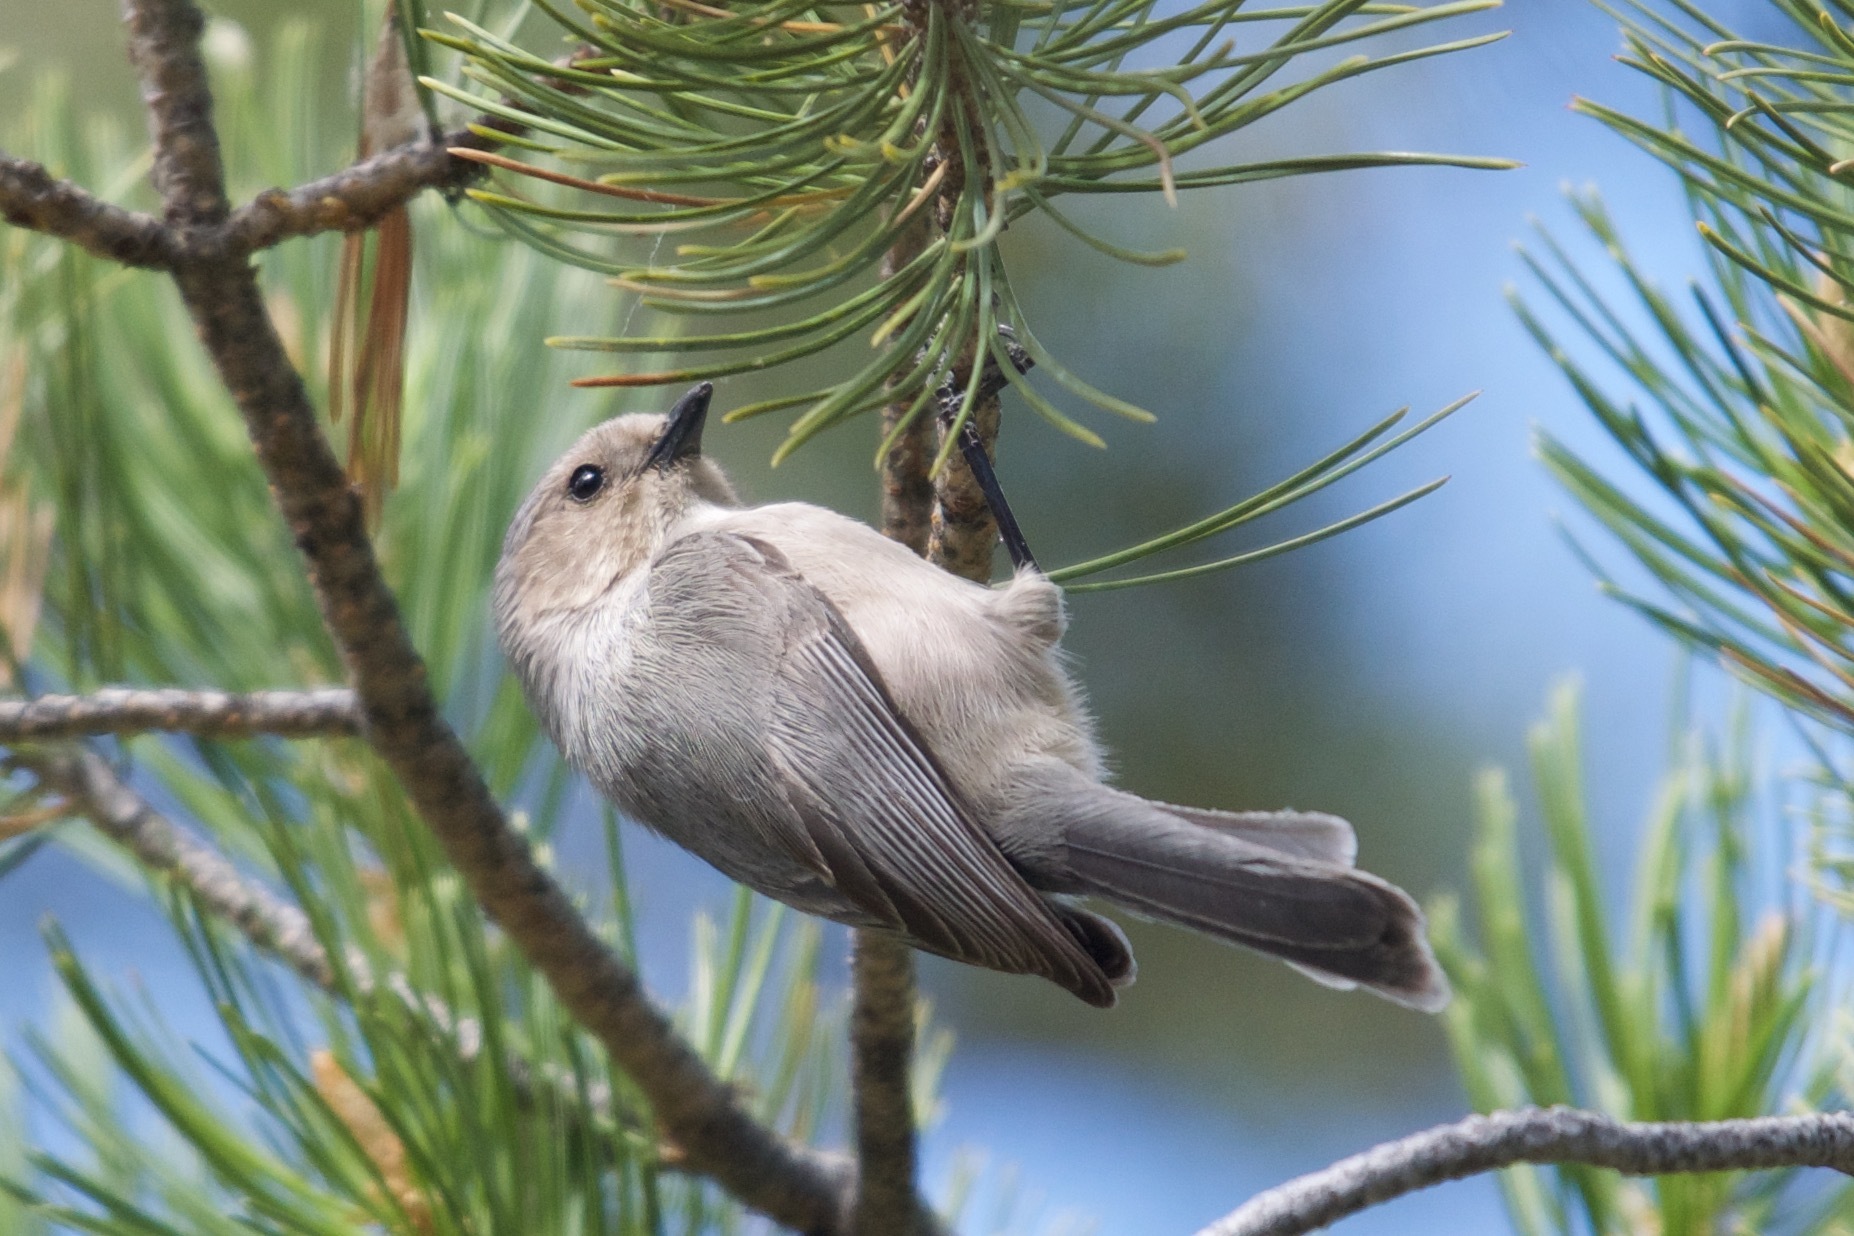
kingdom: Animalia
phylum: Chordata
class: Aves
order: Passeriformes
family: Aegithalidae
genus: Psaltriparus
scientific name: Psaltriparus minimus
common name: American bushtit
